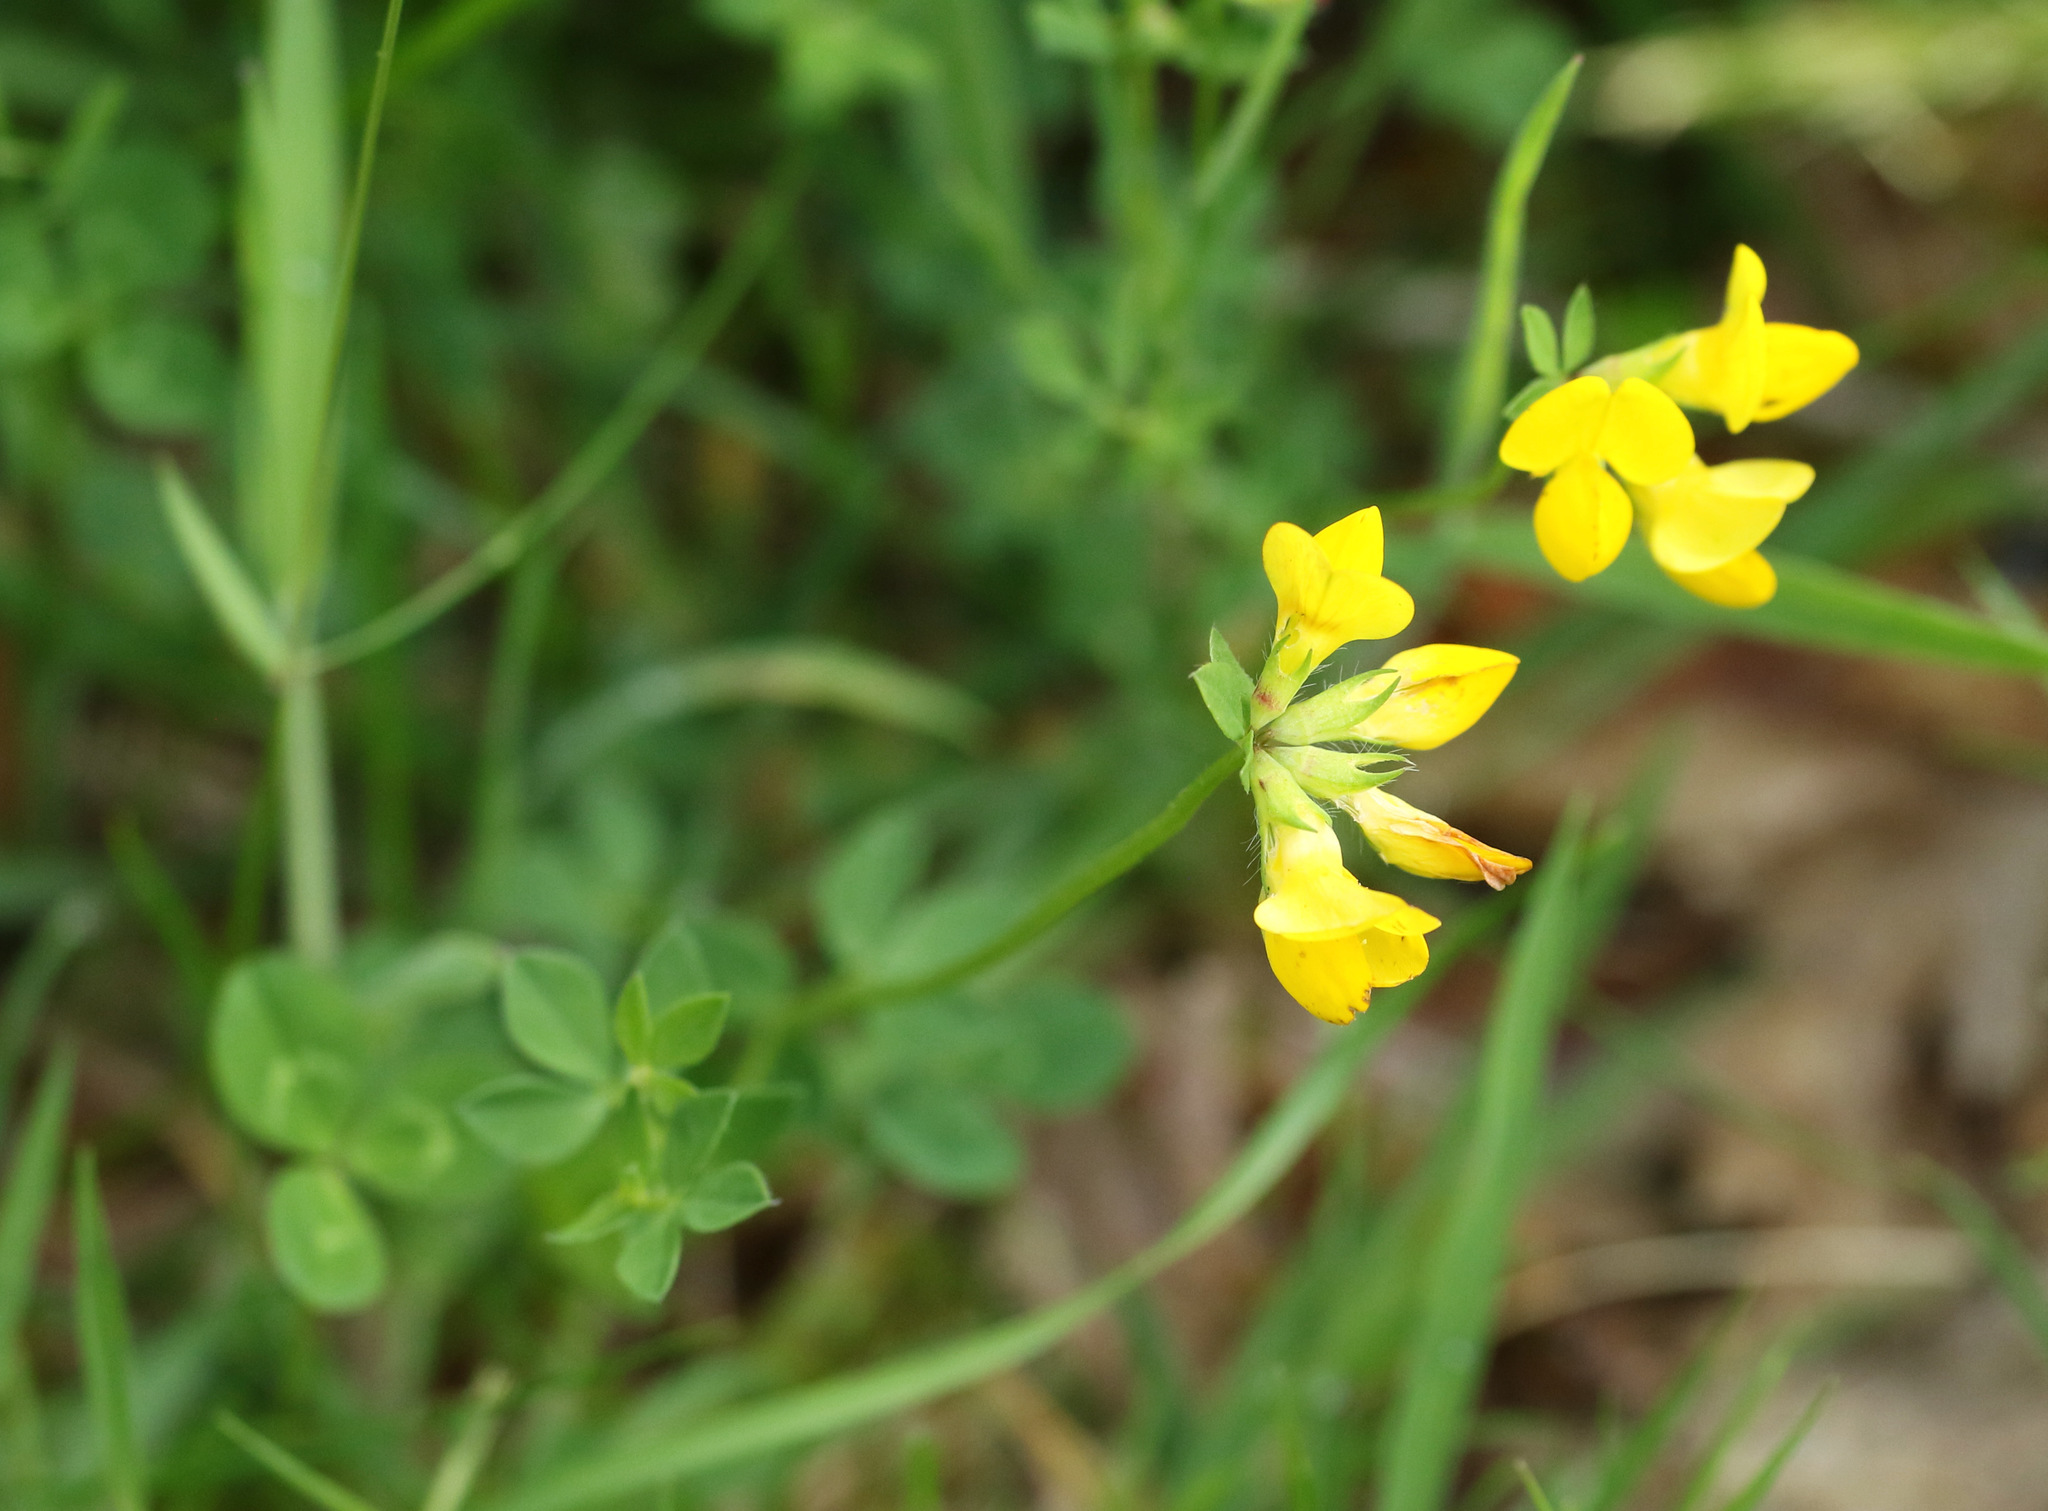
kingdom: Plantae
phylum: Tracheophyta
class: Magnoliopsida
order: Fabales
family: Fabaceae
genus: Lotus
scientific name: Lotus corniculatus
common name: Common bird's-foot-trefoil
